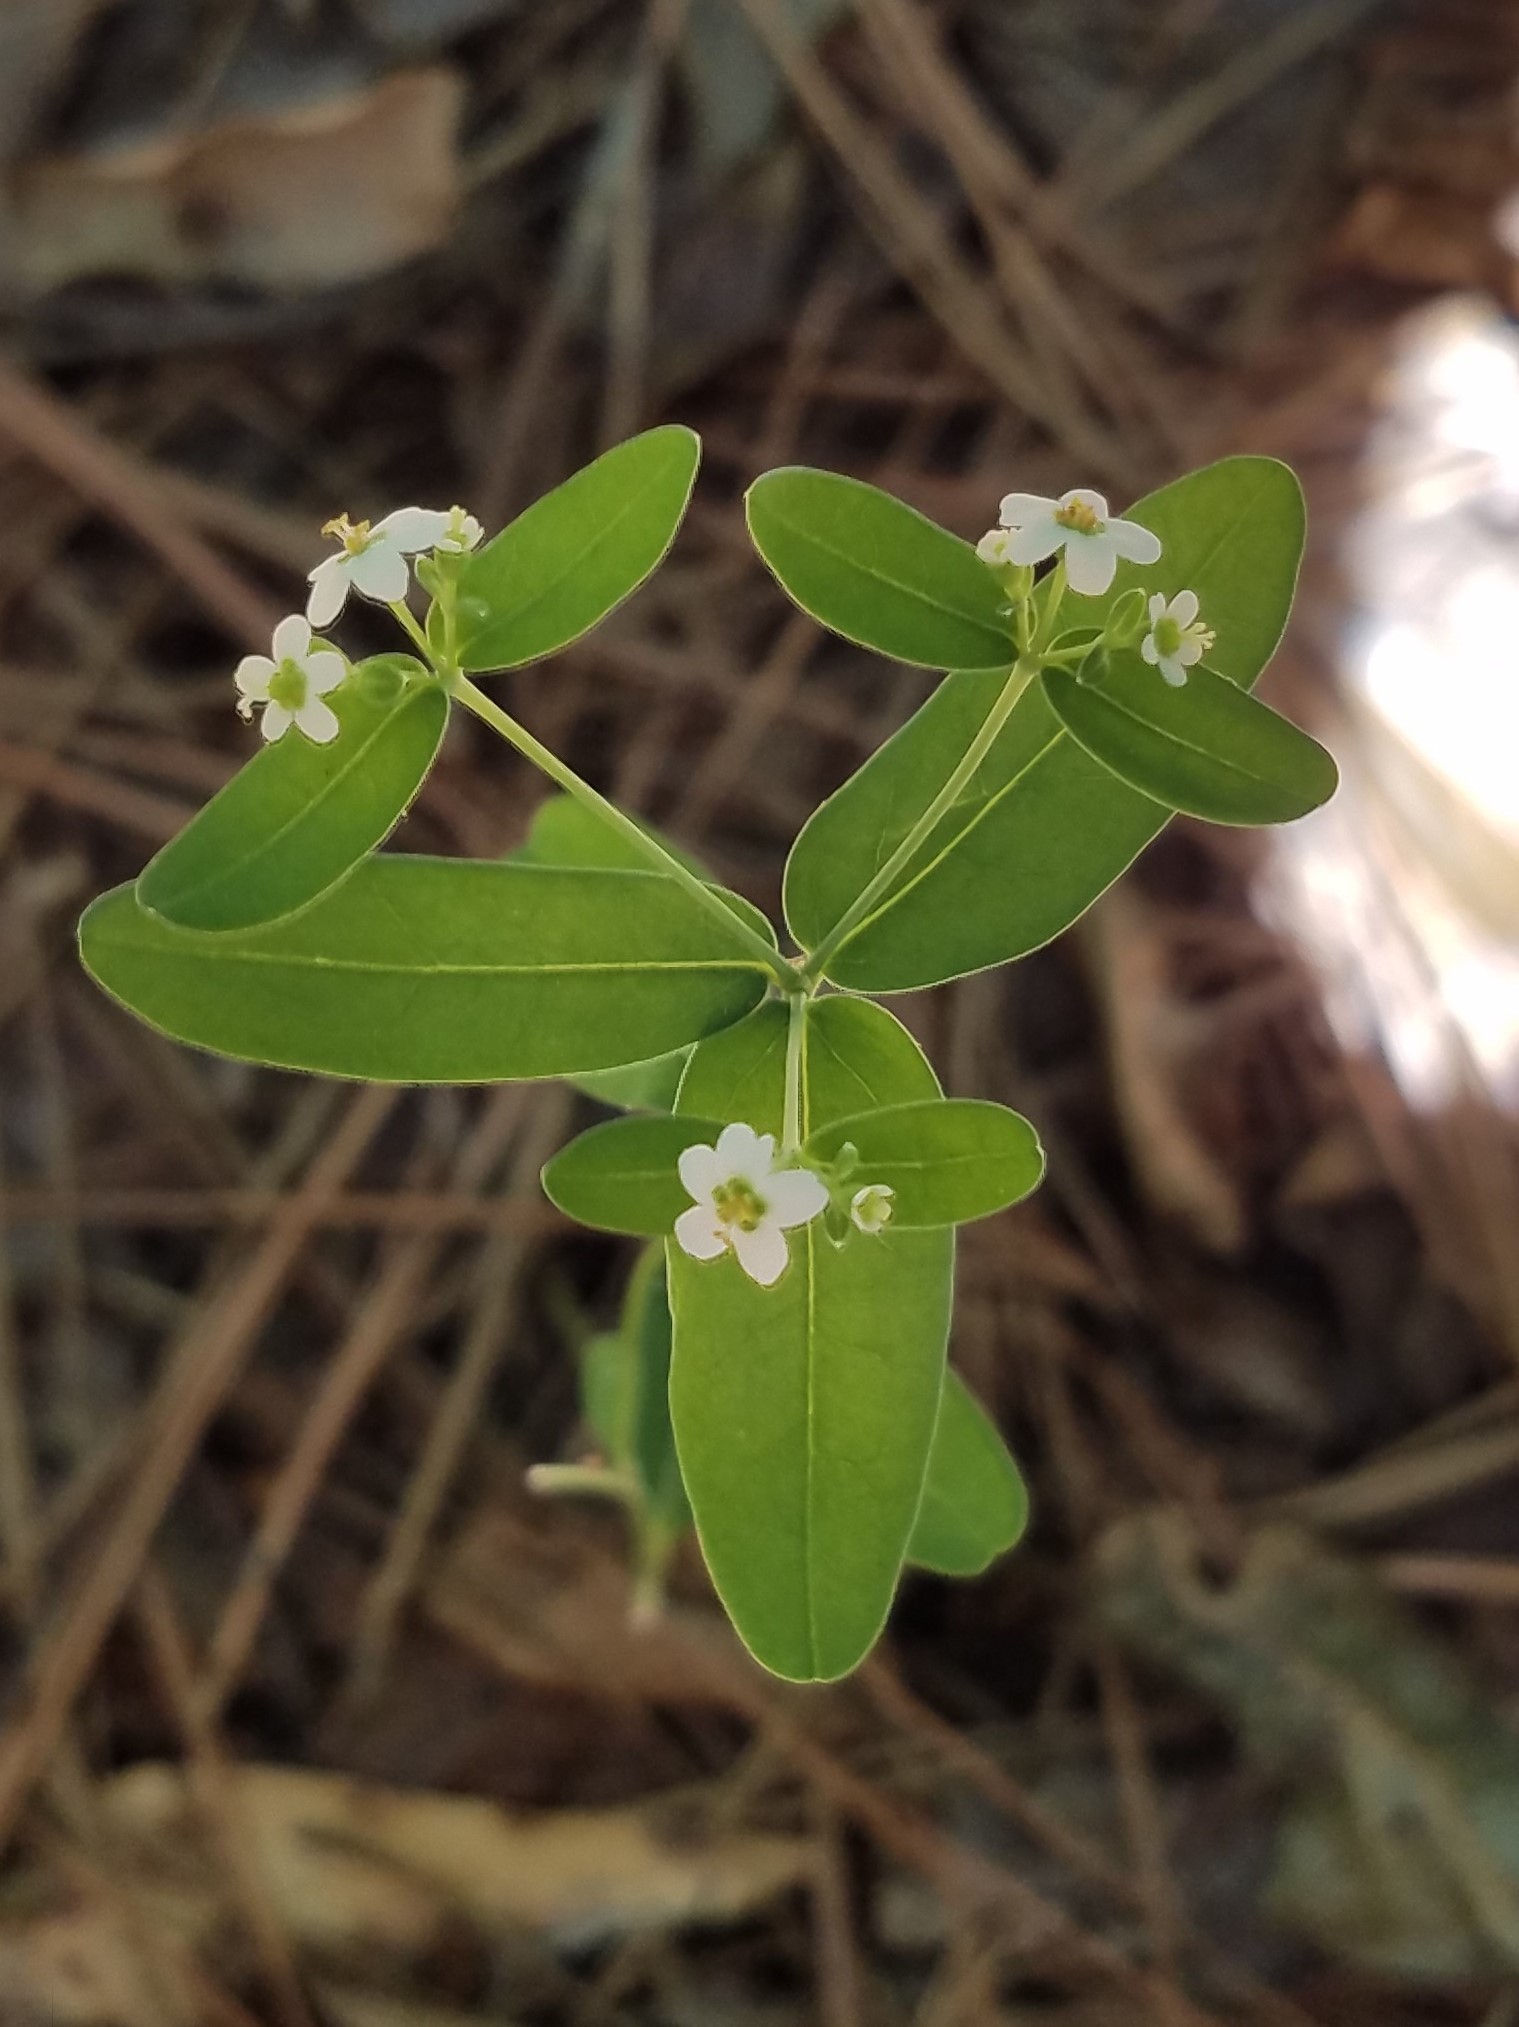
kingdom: Plantae
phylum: Tracheophyta
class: Magnoliopsida
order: Malpighiales
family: Euphorbiaceae
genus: Euphorbia
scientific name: Euphorbia corollata
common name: Flowering spurge
